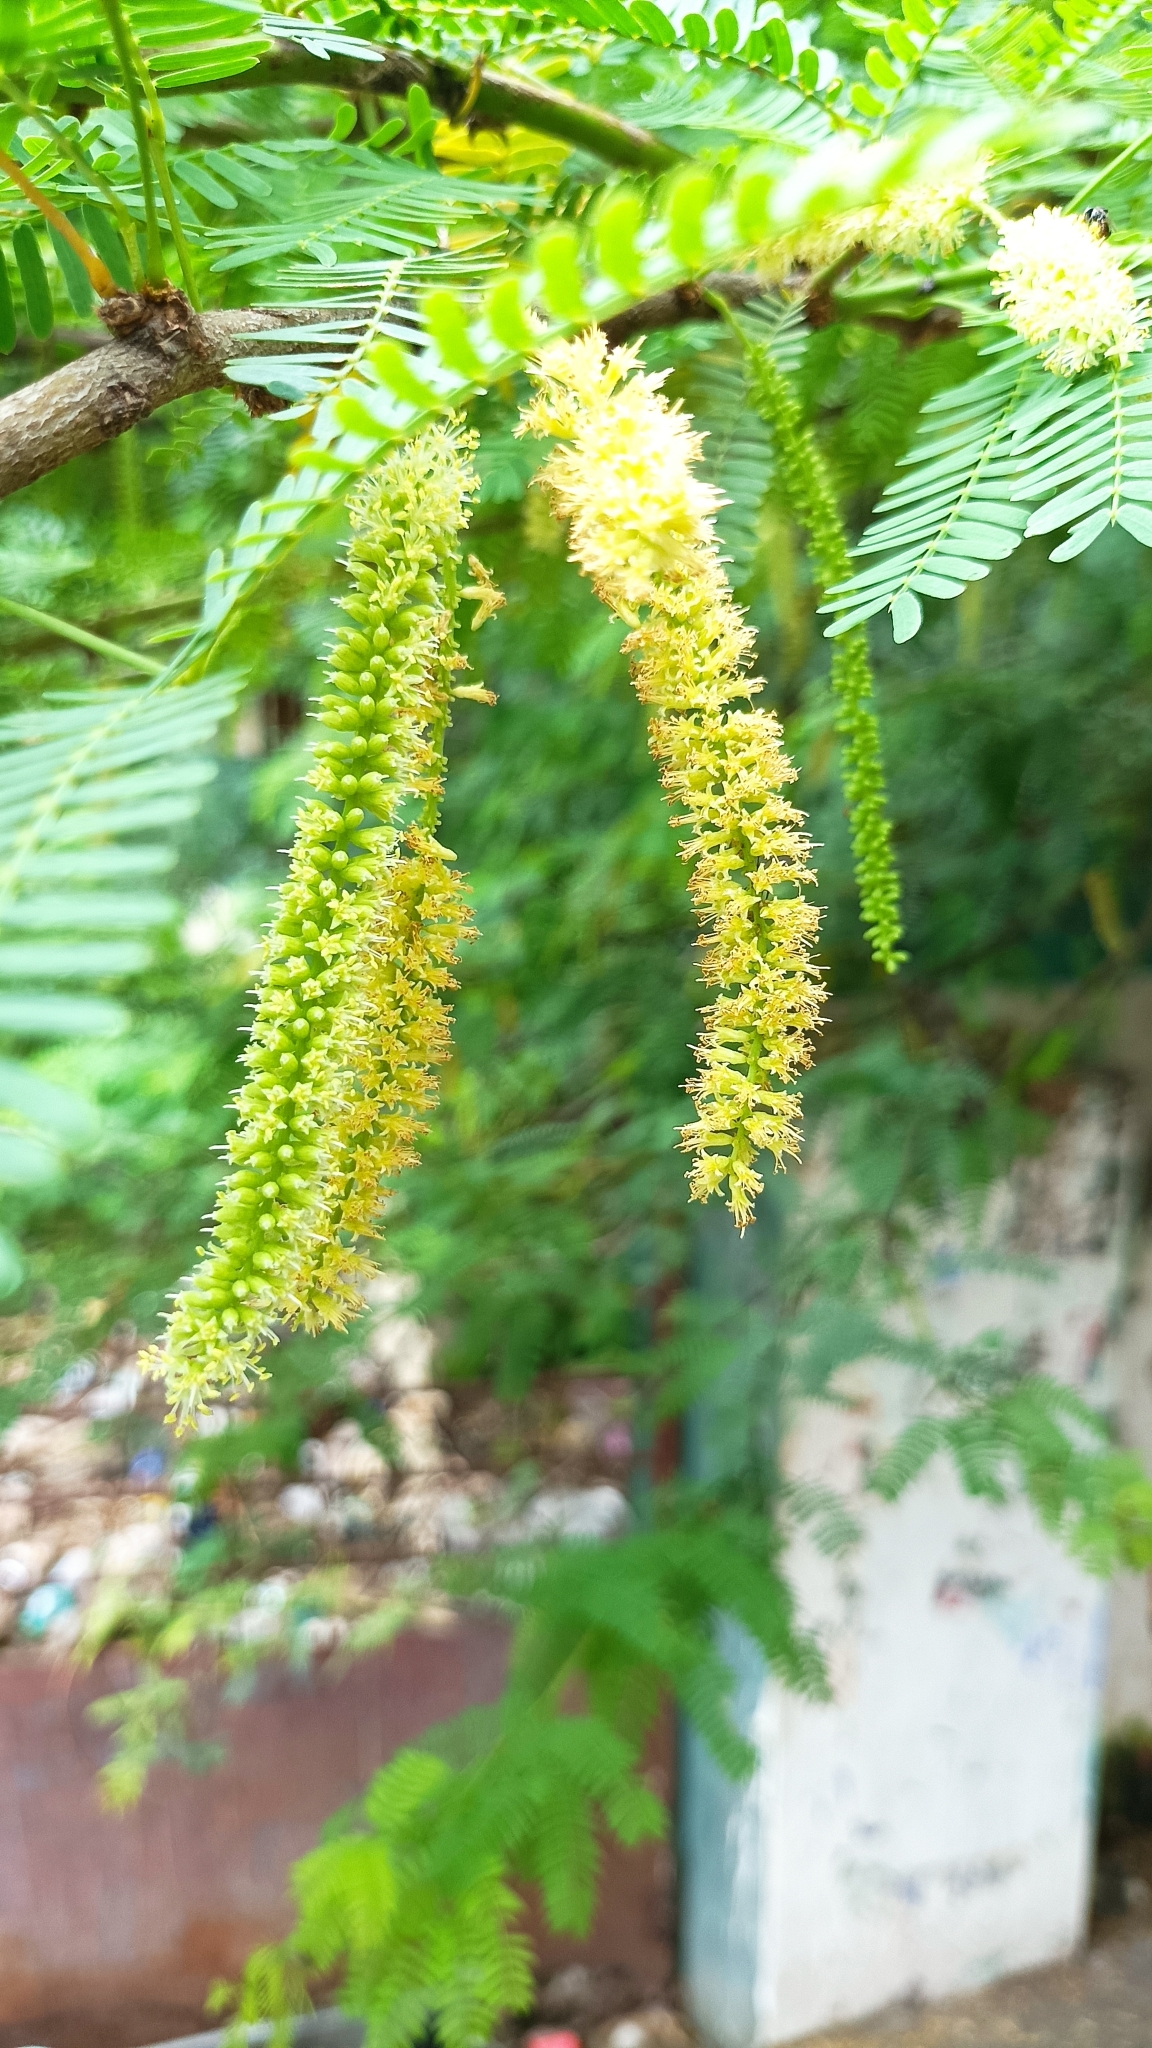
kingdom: Plantae
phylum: Tracheophyta
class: Magnoliopsida
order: Fabales
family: Fabaceae
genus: Prosopis
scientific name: Prosopis juliflora
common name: Mesquite
